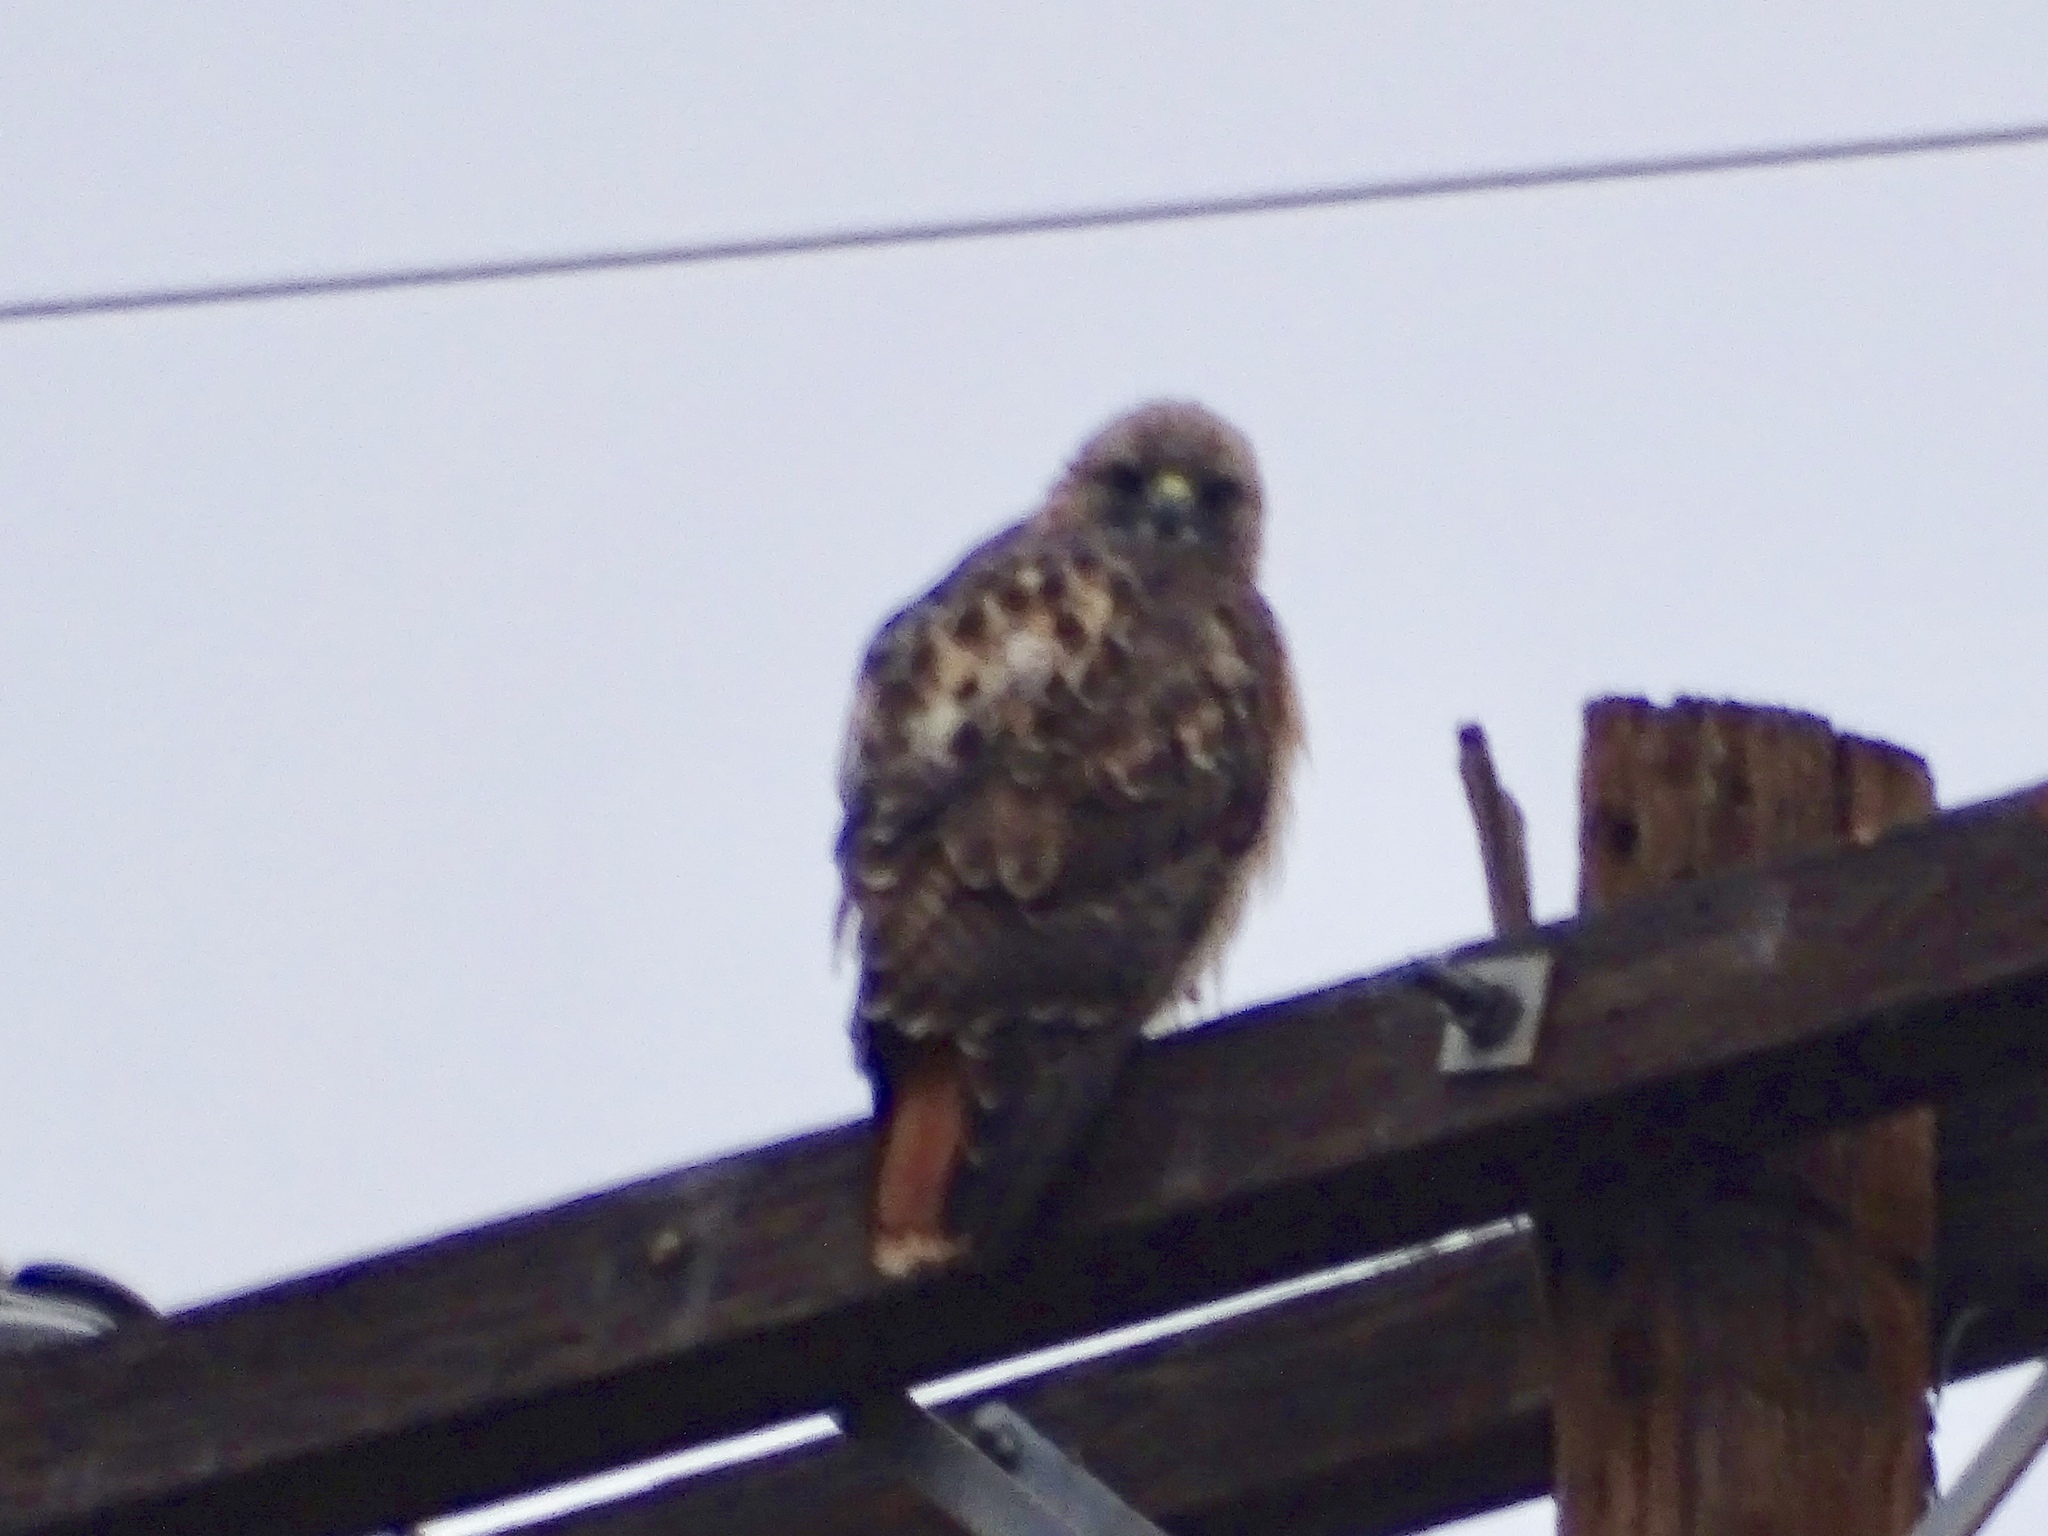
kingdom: Animalia
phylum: Chordata
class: Aves
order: Accipitriformes
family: Accipitridae
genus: Buteo
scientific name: Buteo jamaicensis
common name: Red-tailed hawk
